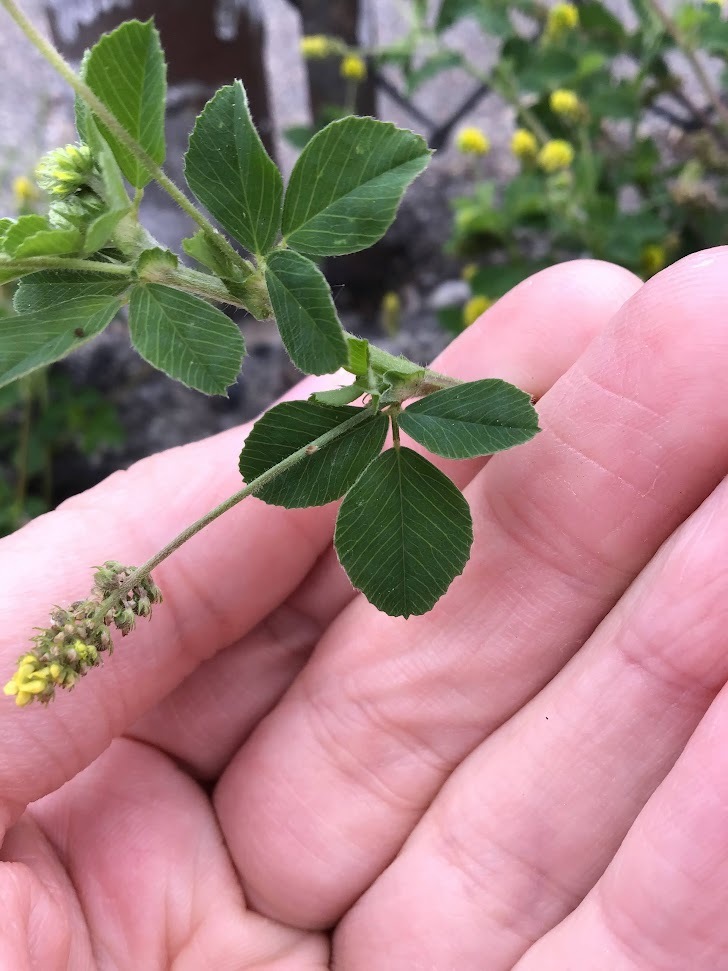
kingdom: Plantae
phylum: Tracheophyta
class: Magnoliopsida
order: Fabales
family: Fabaceae
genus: Medicago
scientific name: Medicago lupulina
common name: Black medick
